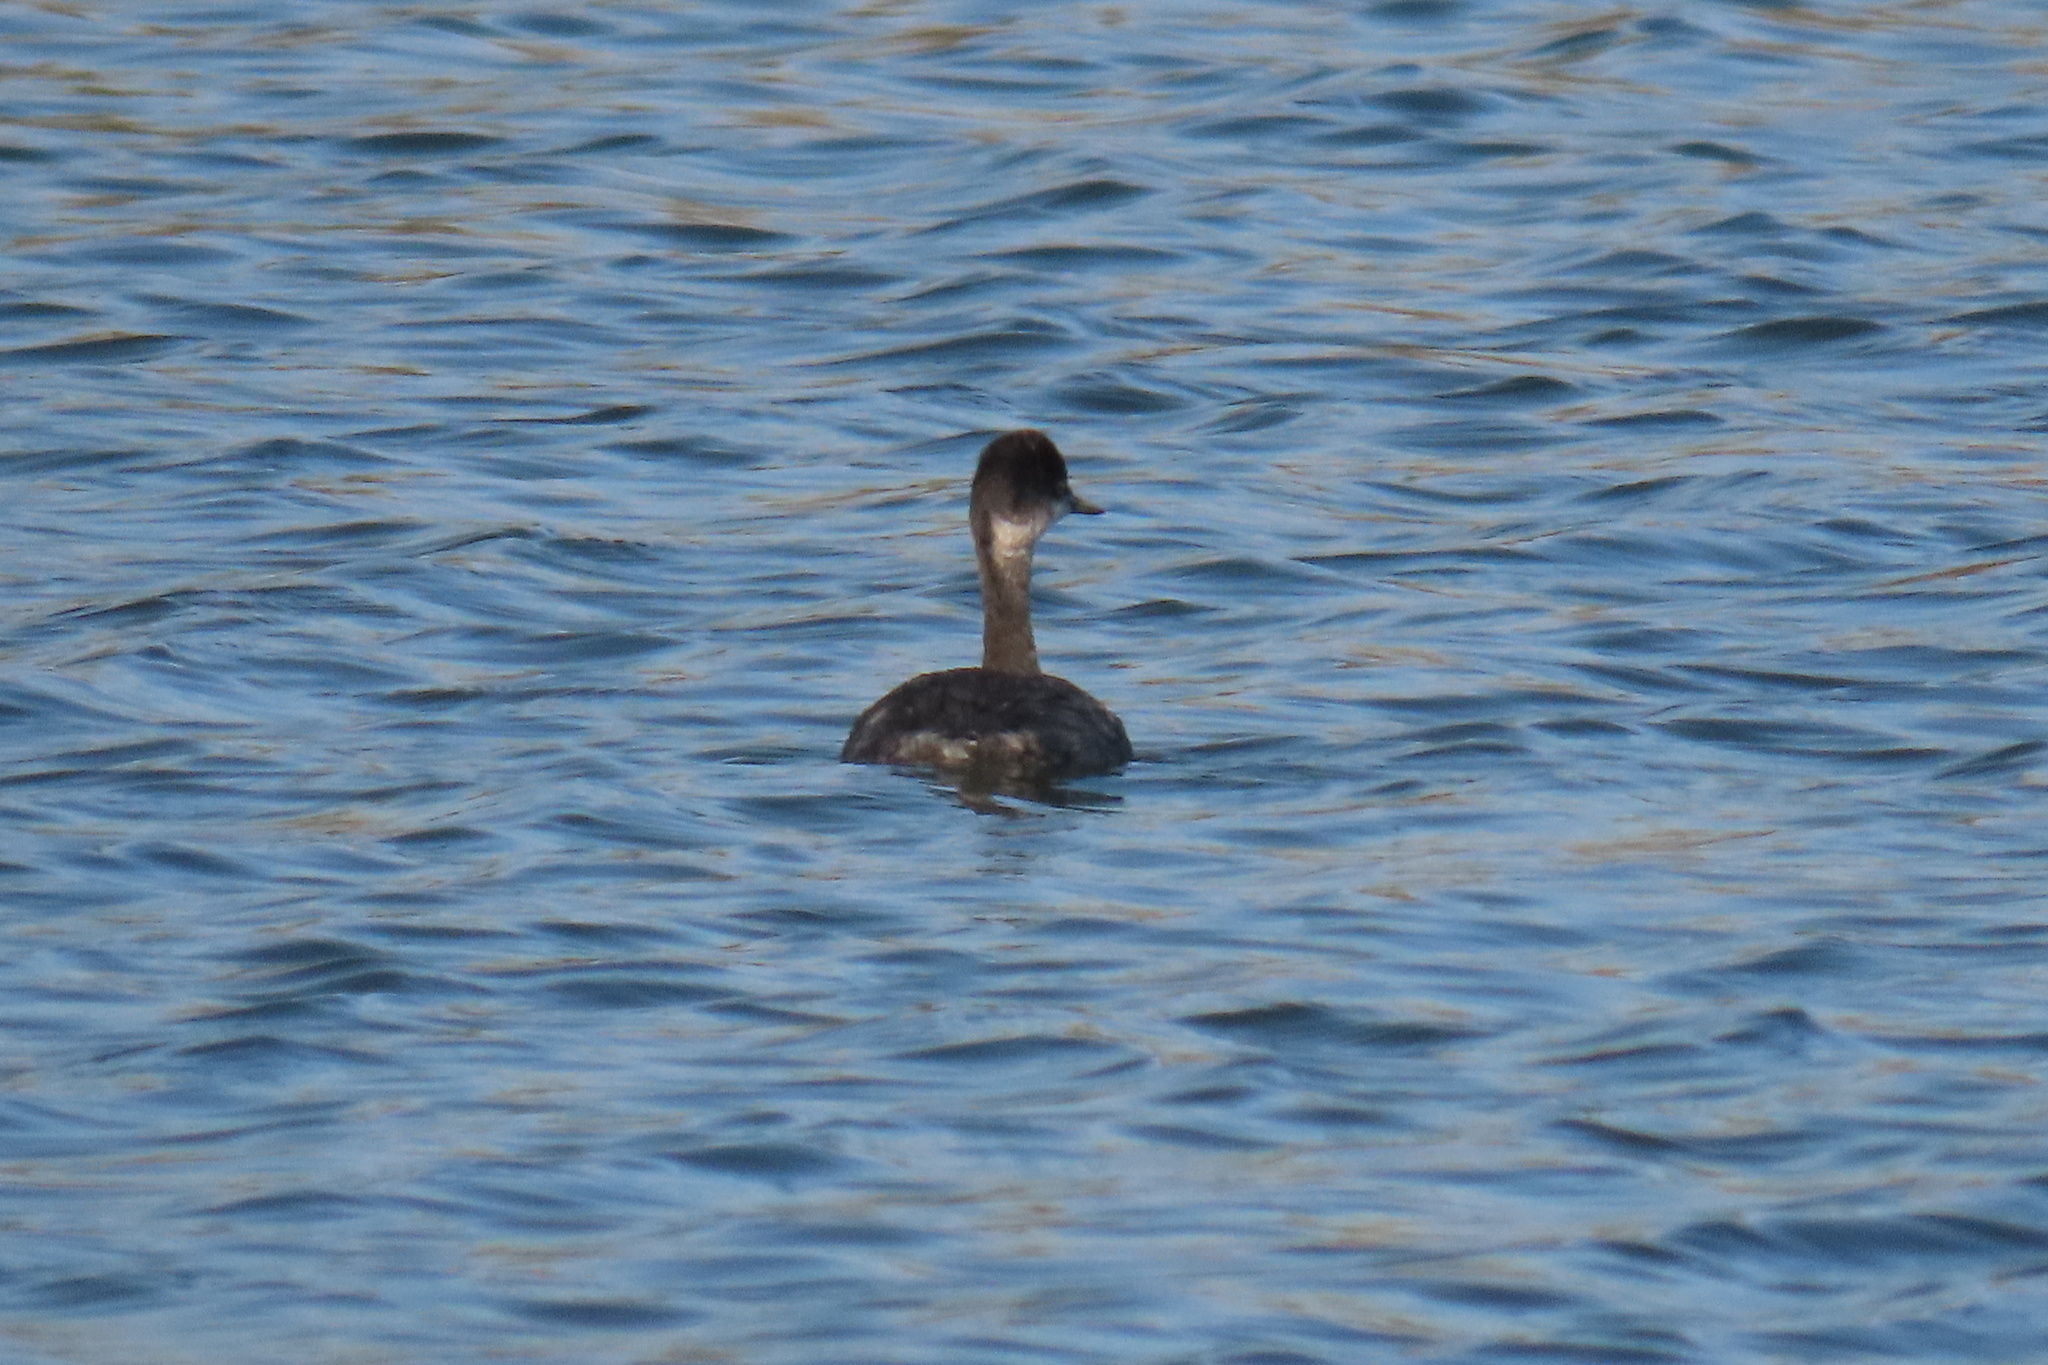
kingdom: Animalia
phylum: Chordata
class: Aves
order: Podicipediformes
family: Podicipedidae
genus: Podiceps
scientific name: Podiceps nigricollis
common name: Black-necked grebe
